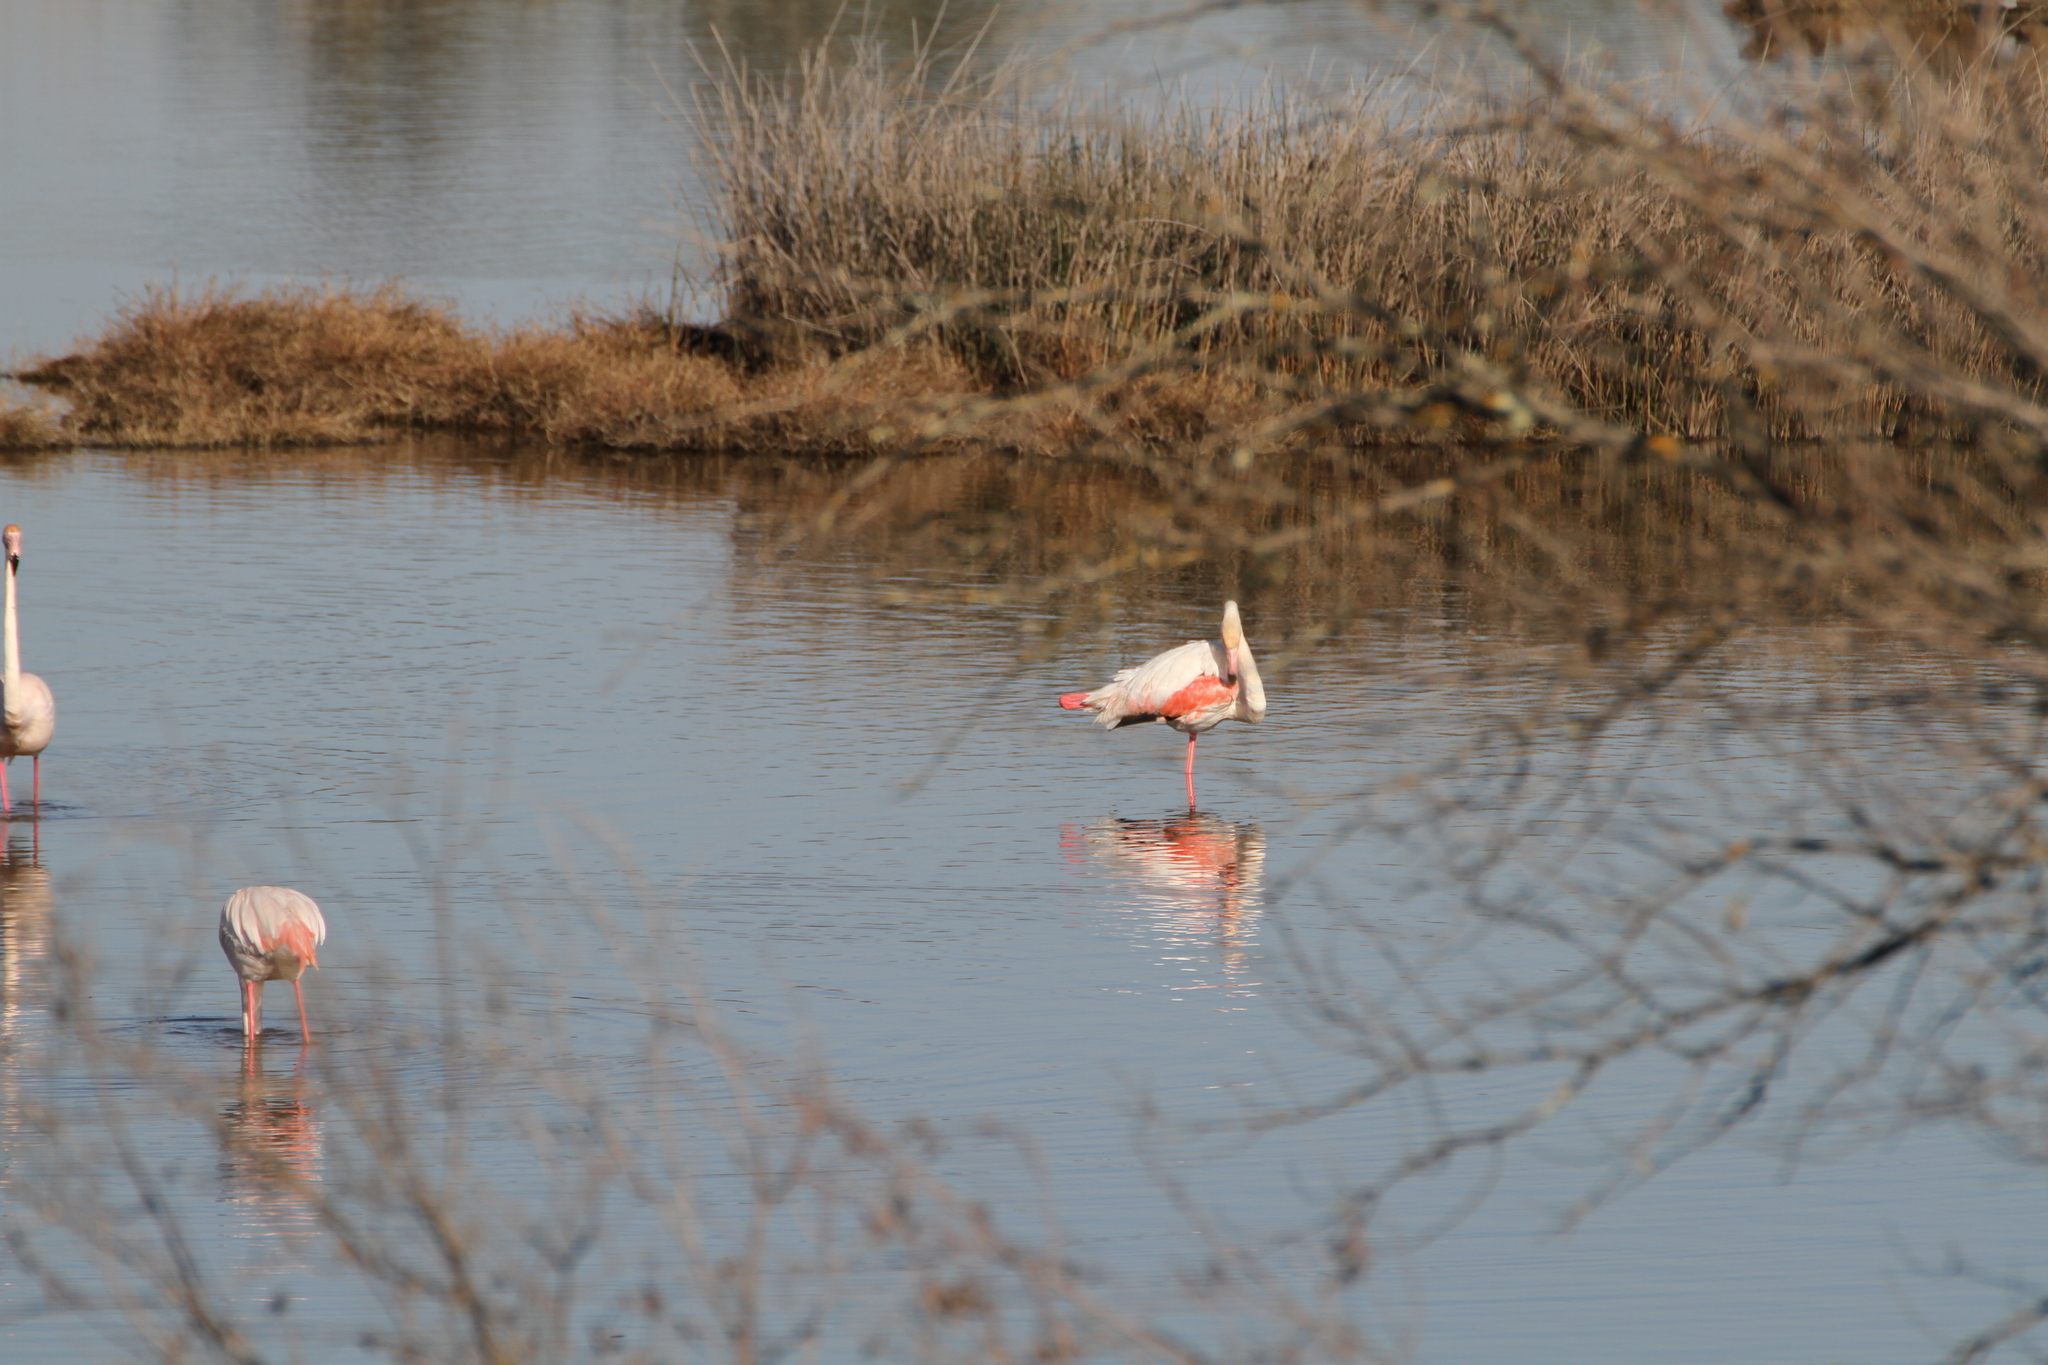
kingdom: Animalia
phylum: Chordata
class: Aves
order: Phoenicopteriformes
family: Phoenicopteridae
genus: Phoenicopterus
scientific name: Phoenicopterus roseus
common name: Greater flamingo
